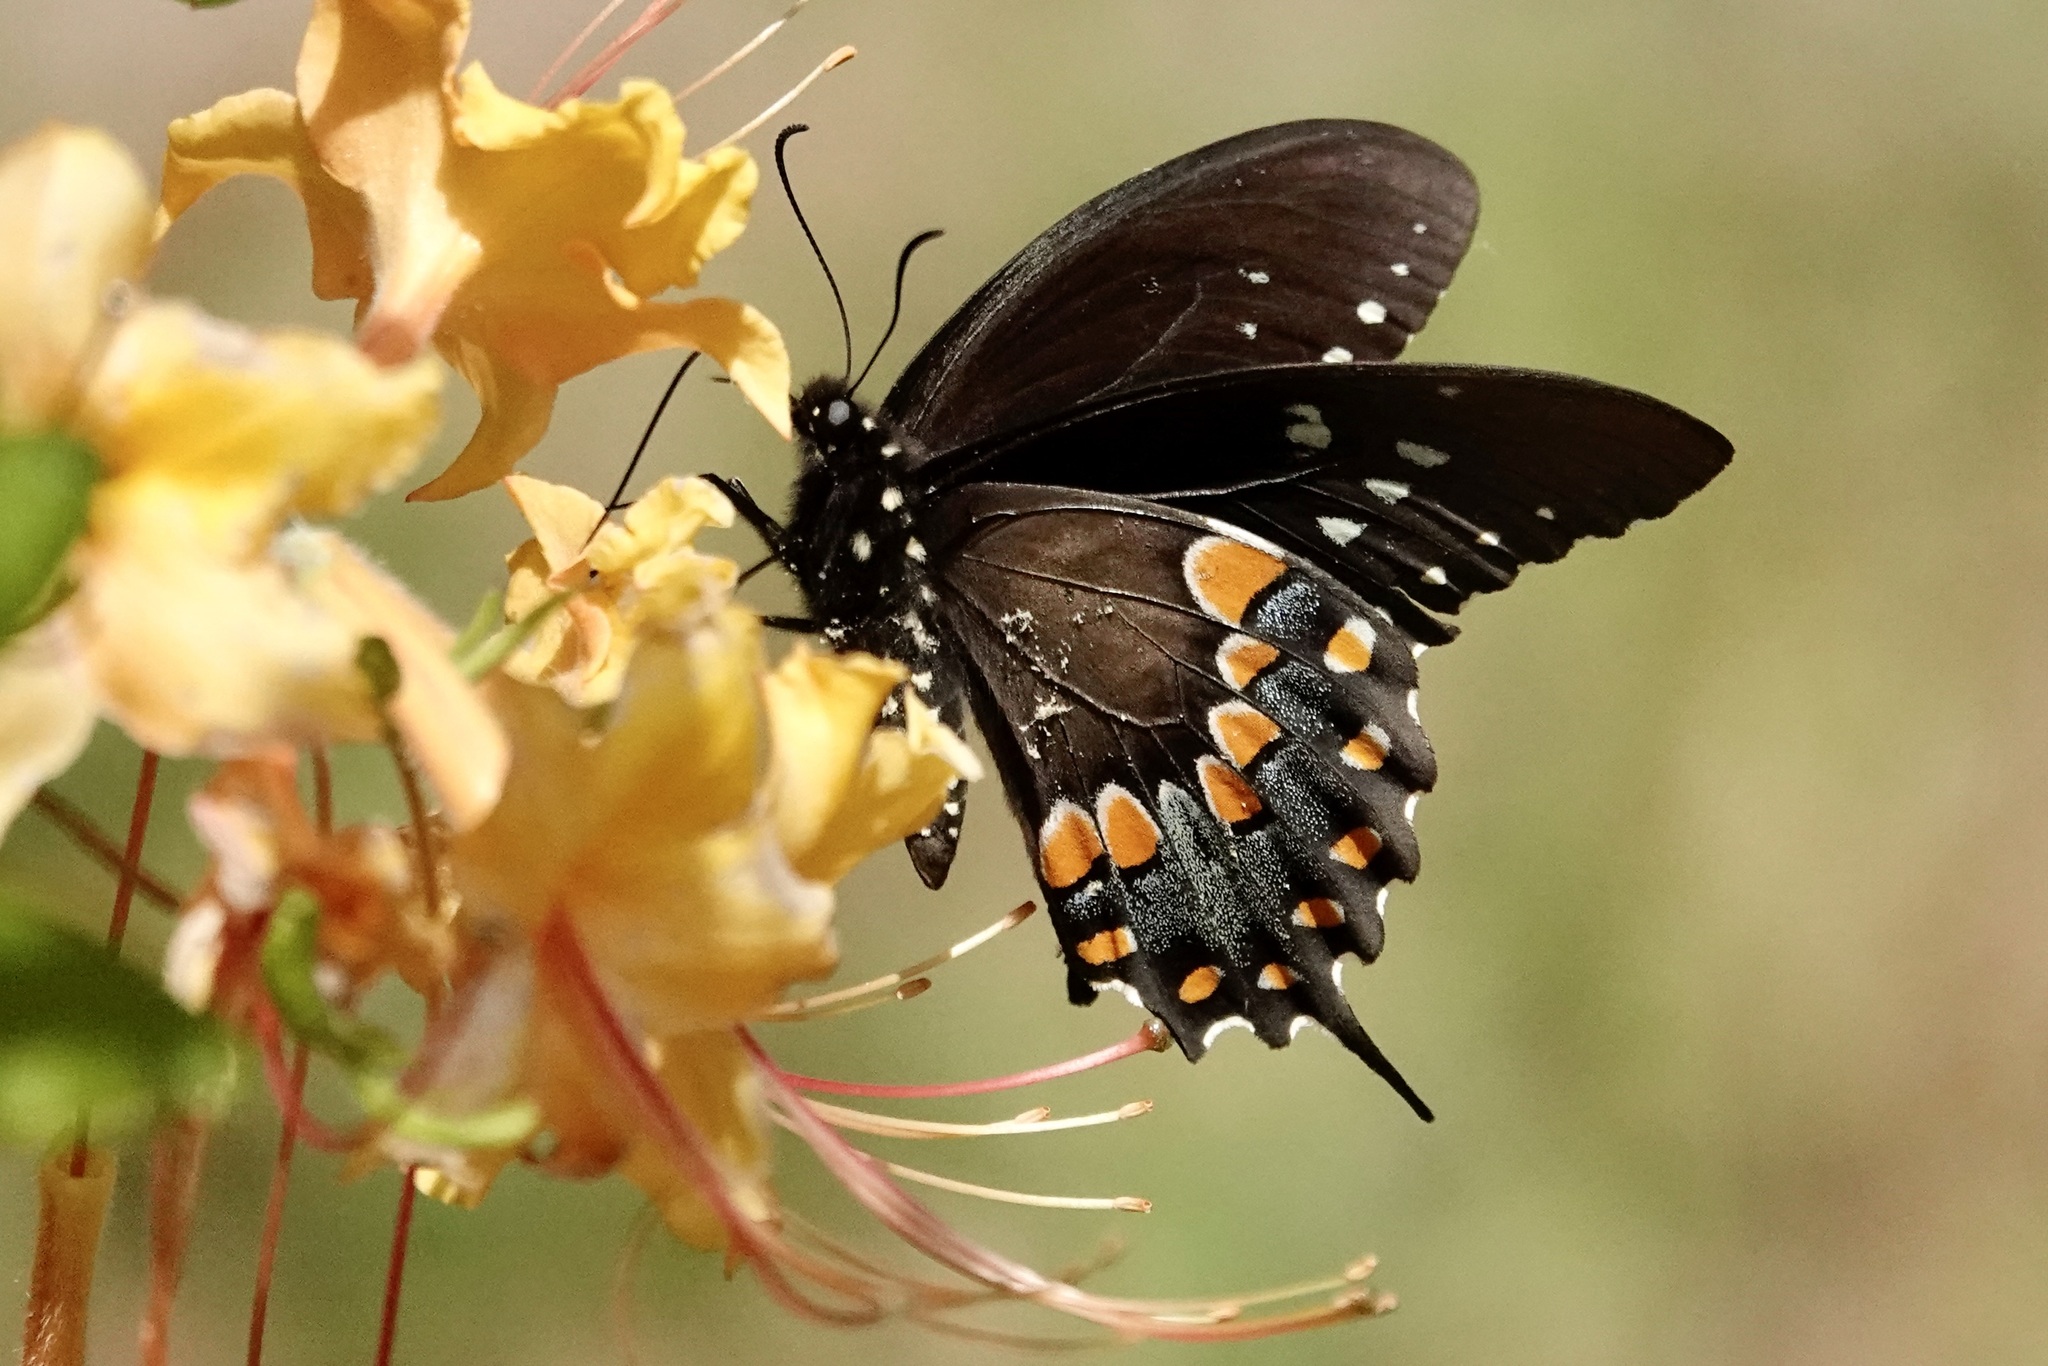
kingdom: Animalia
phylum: Arthropoda
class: Insecta
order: Lepidoptera
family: Papilionidae
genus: Papilio
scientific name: Papilio troilus
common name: Spicebush swallowtail
